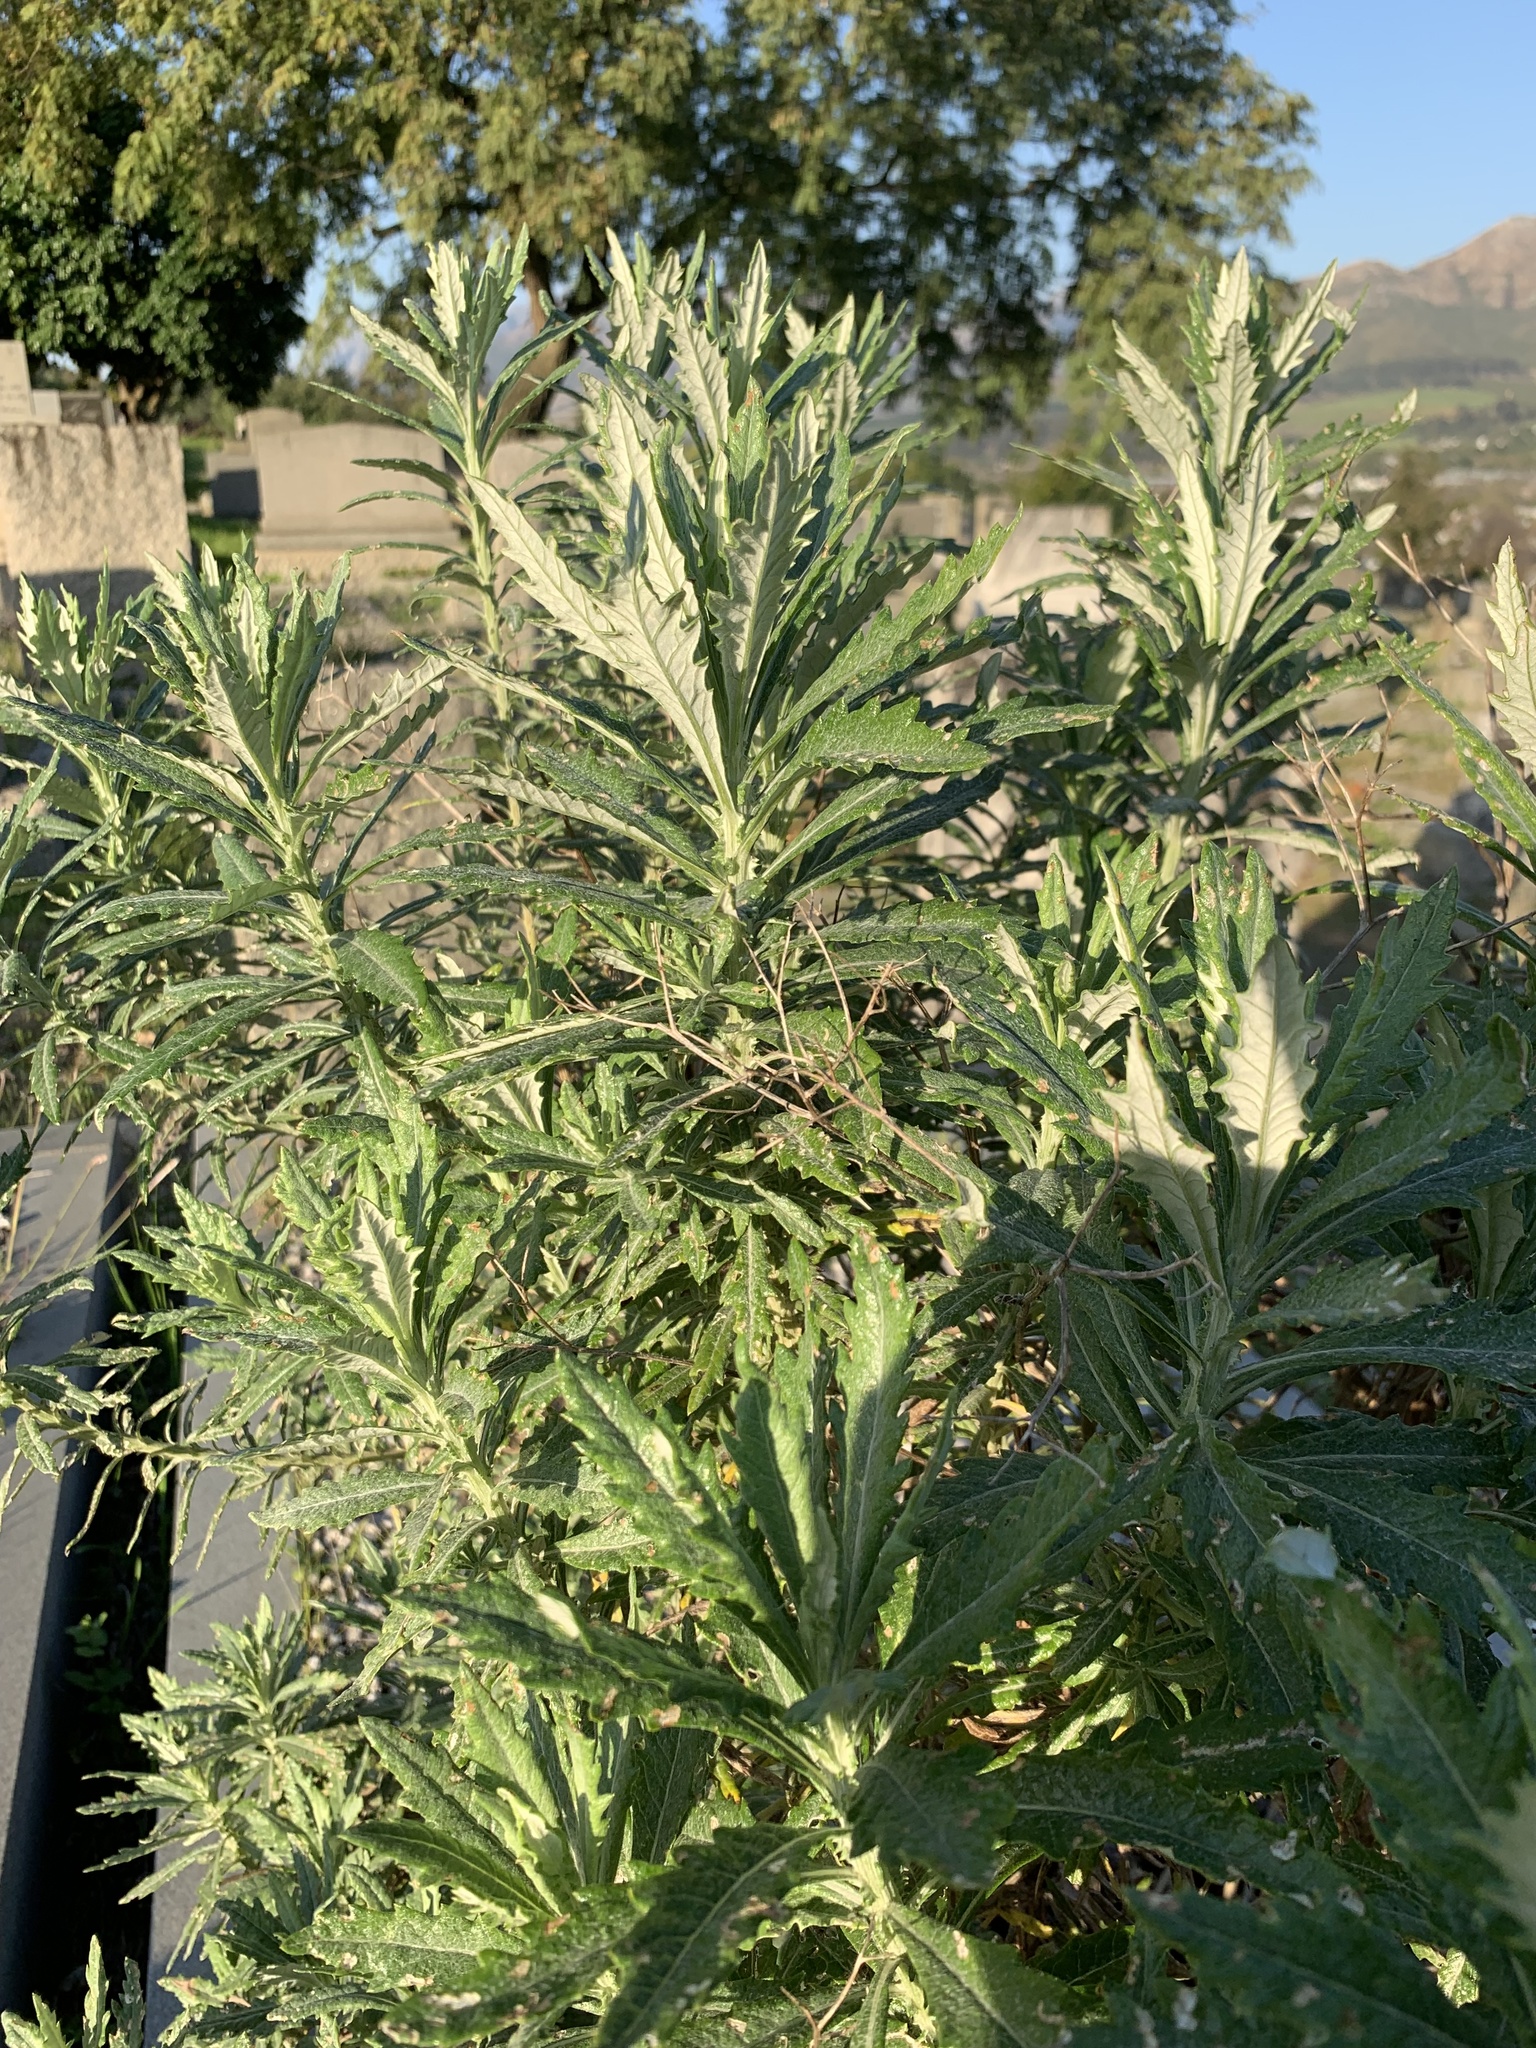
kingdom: Plantae
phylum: Tracheophyta
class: Magnoliopsida
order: Asterales
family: Asteraceae
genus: Senecio
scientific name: Senecio pterophorus
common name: Shoddy ragwort
